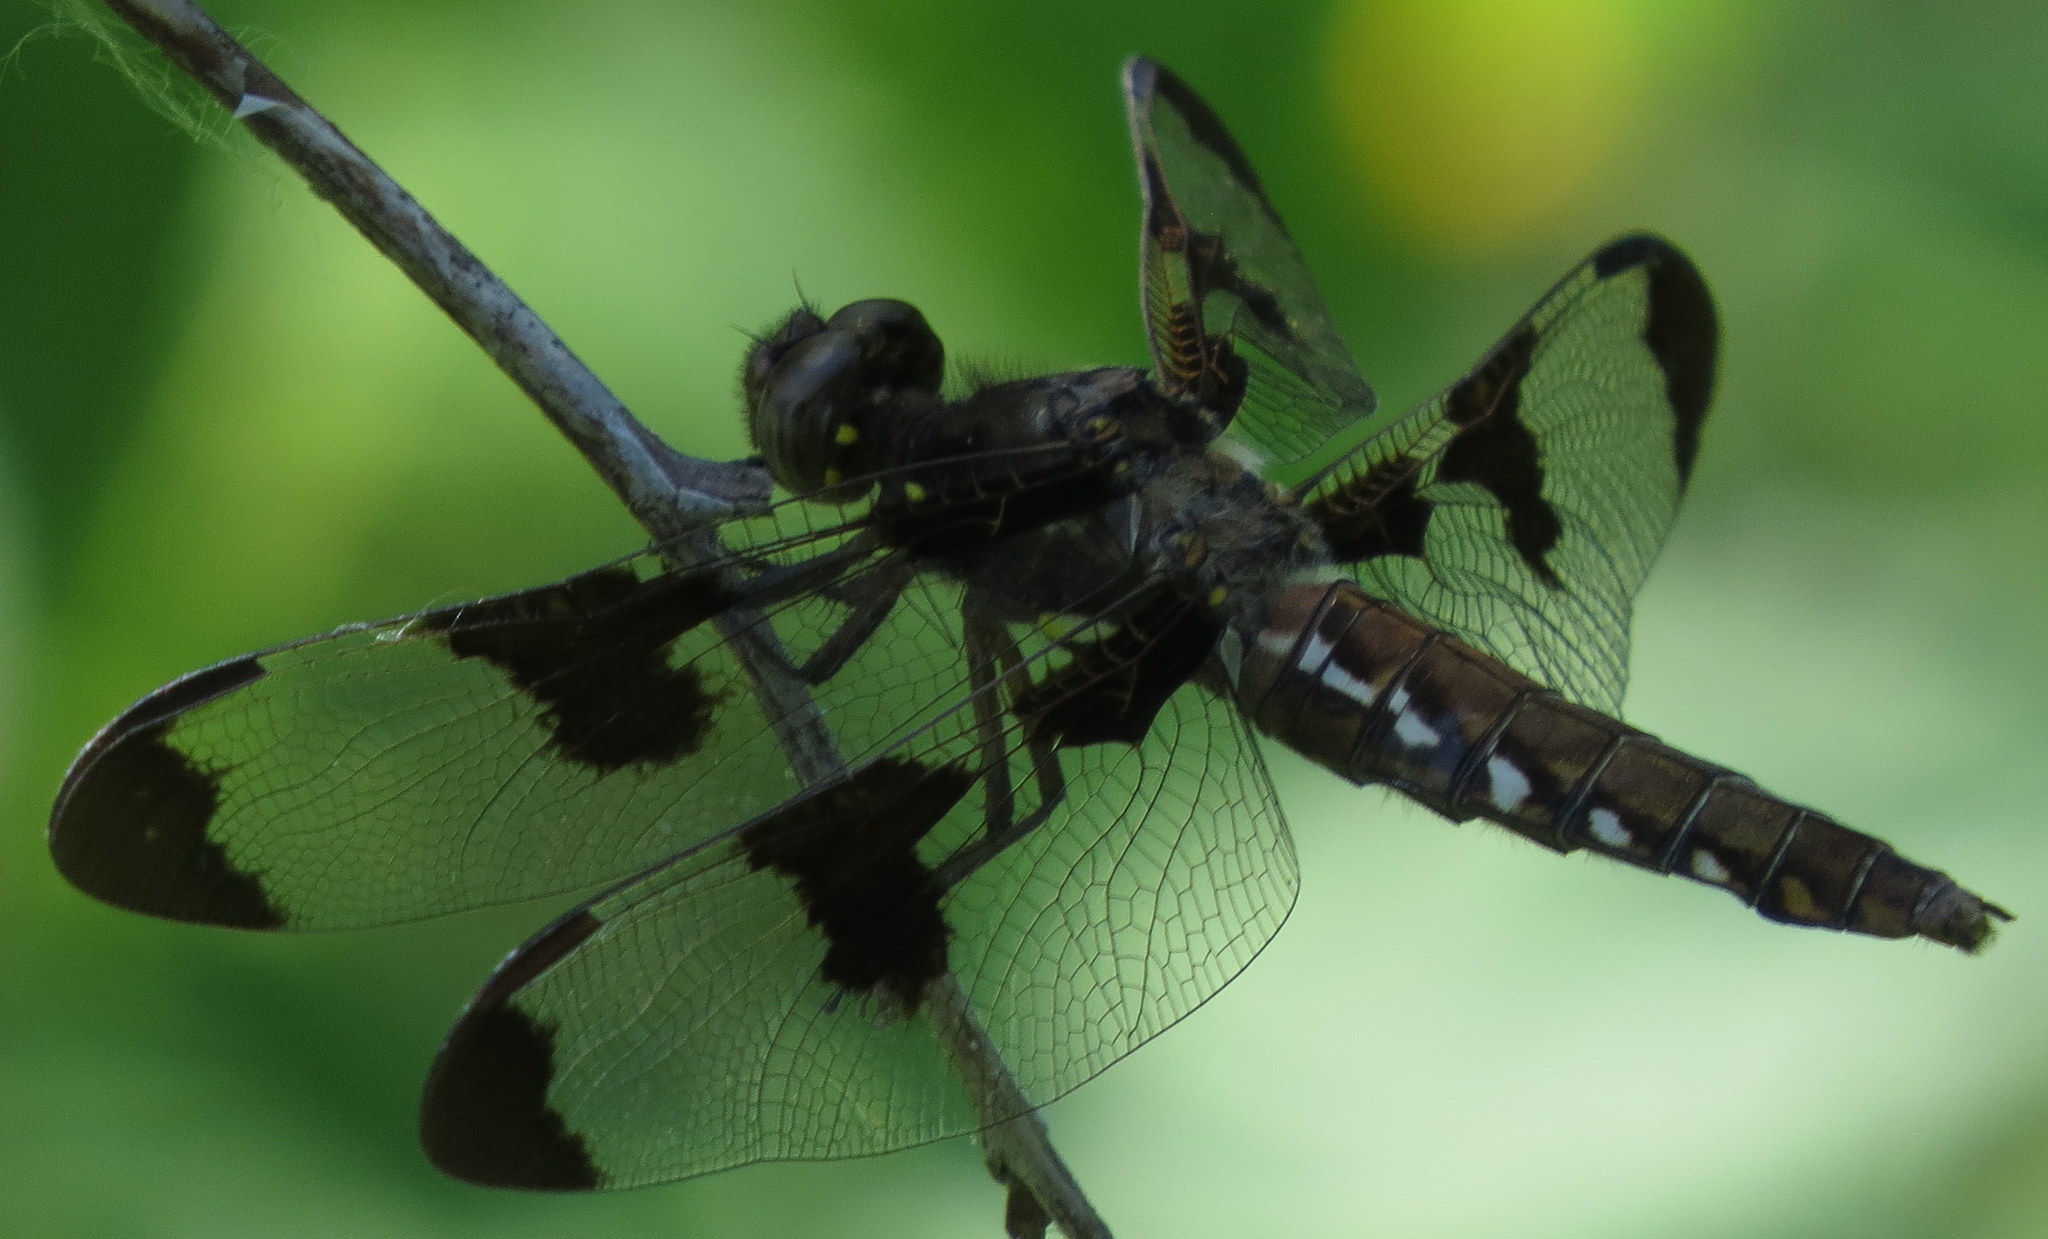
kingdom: Animalia
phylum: Arthropoda
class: Insecta
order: Odonata
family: Libellulidae
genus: Plathemis
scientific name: Plathemis lydia
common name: Common whitetail
